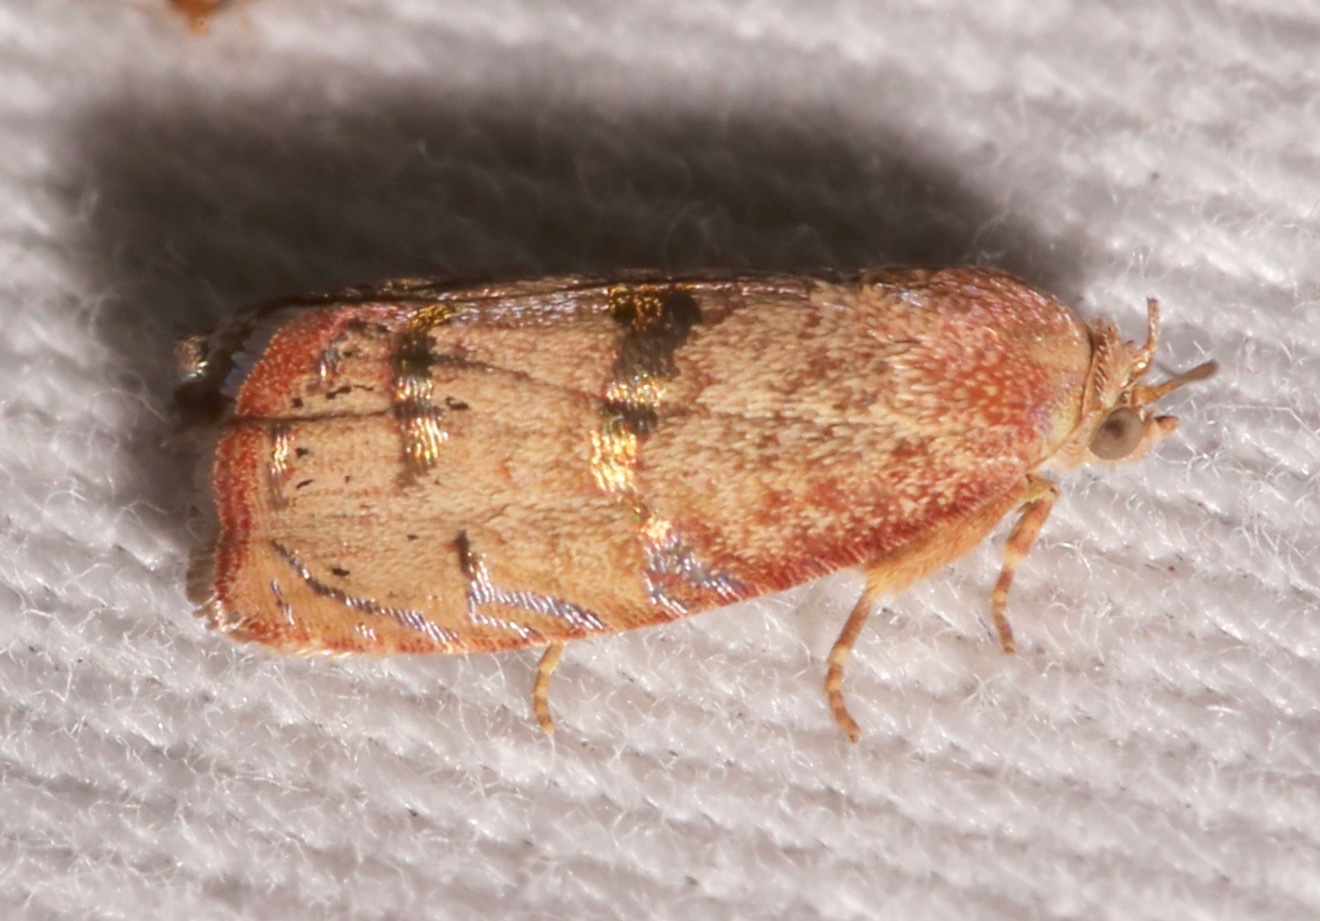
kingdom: Animalia
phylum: Arthropoda
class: Insecta
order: Lepidoptera
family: Tortricidae
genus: Cydia
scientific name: Cydia latiferreana
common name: Filbertworm moth
